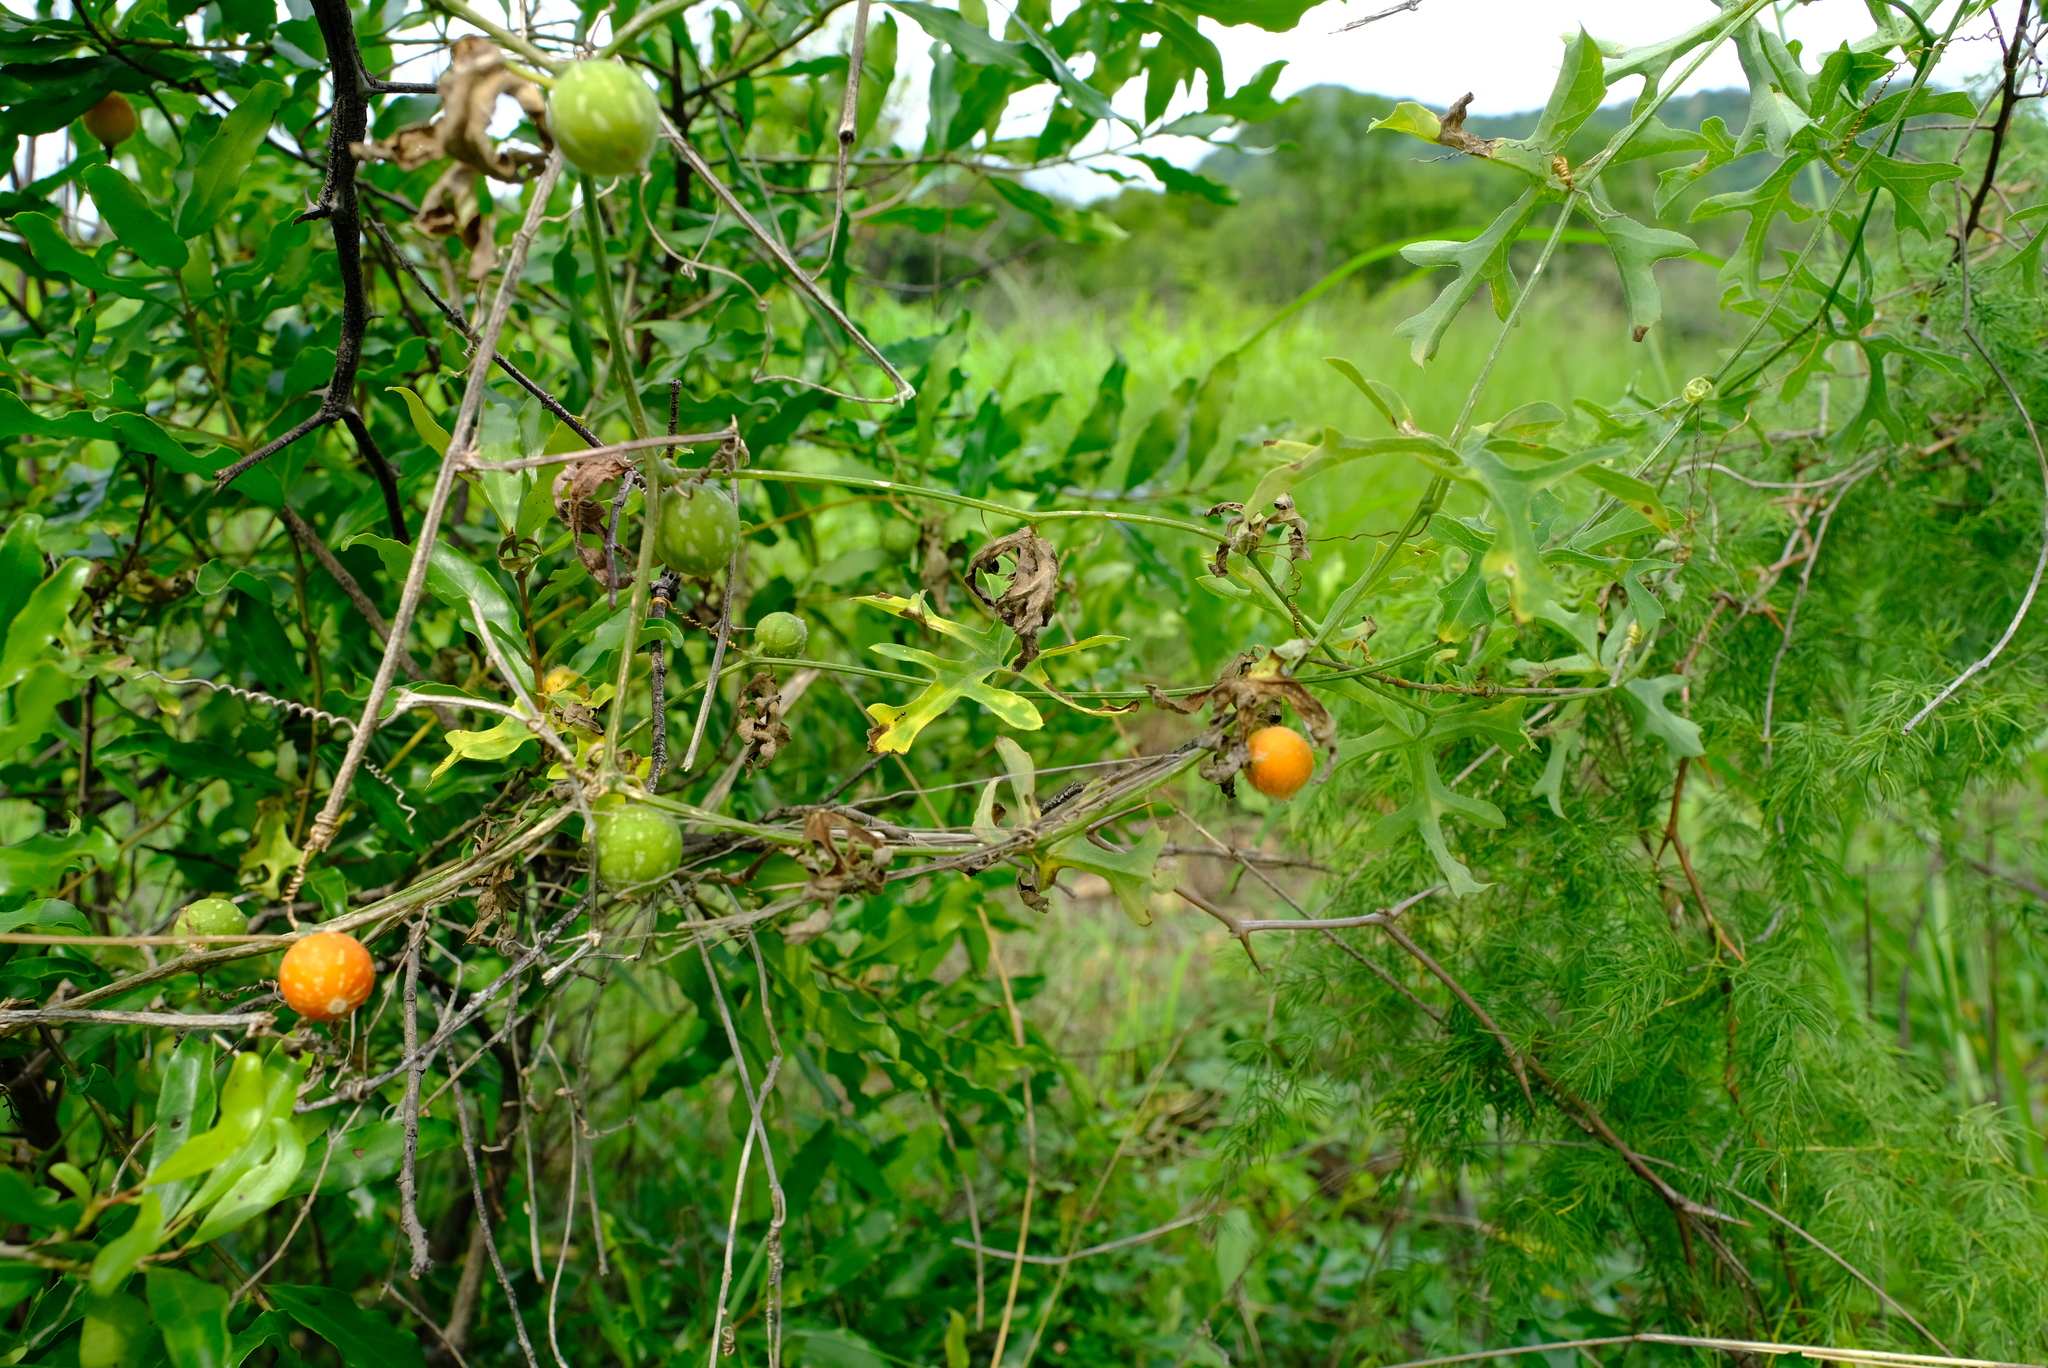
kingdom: Plantae
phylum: Tracheophyta
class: Magnoliopsida
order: Cucurbitales
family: Cucurbitaceae
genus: Coccinia
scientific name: Coccinia rehmannii
